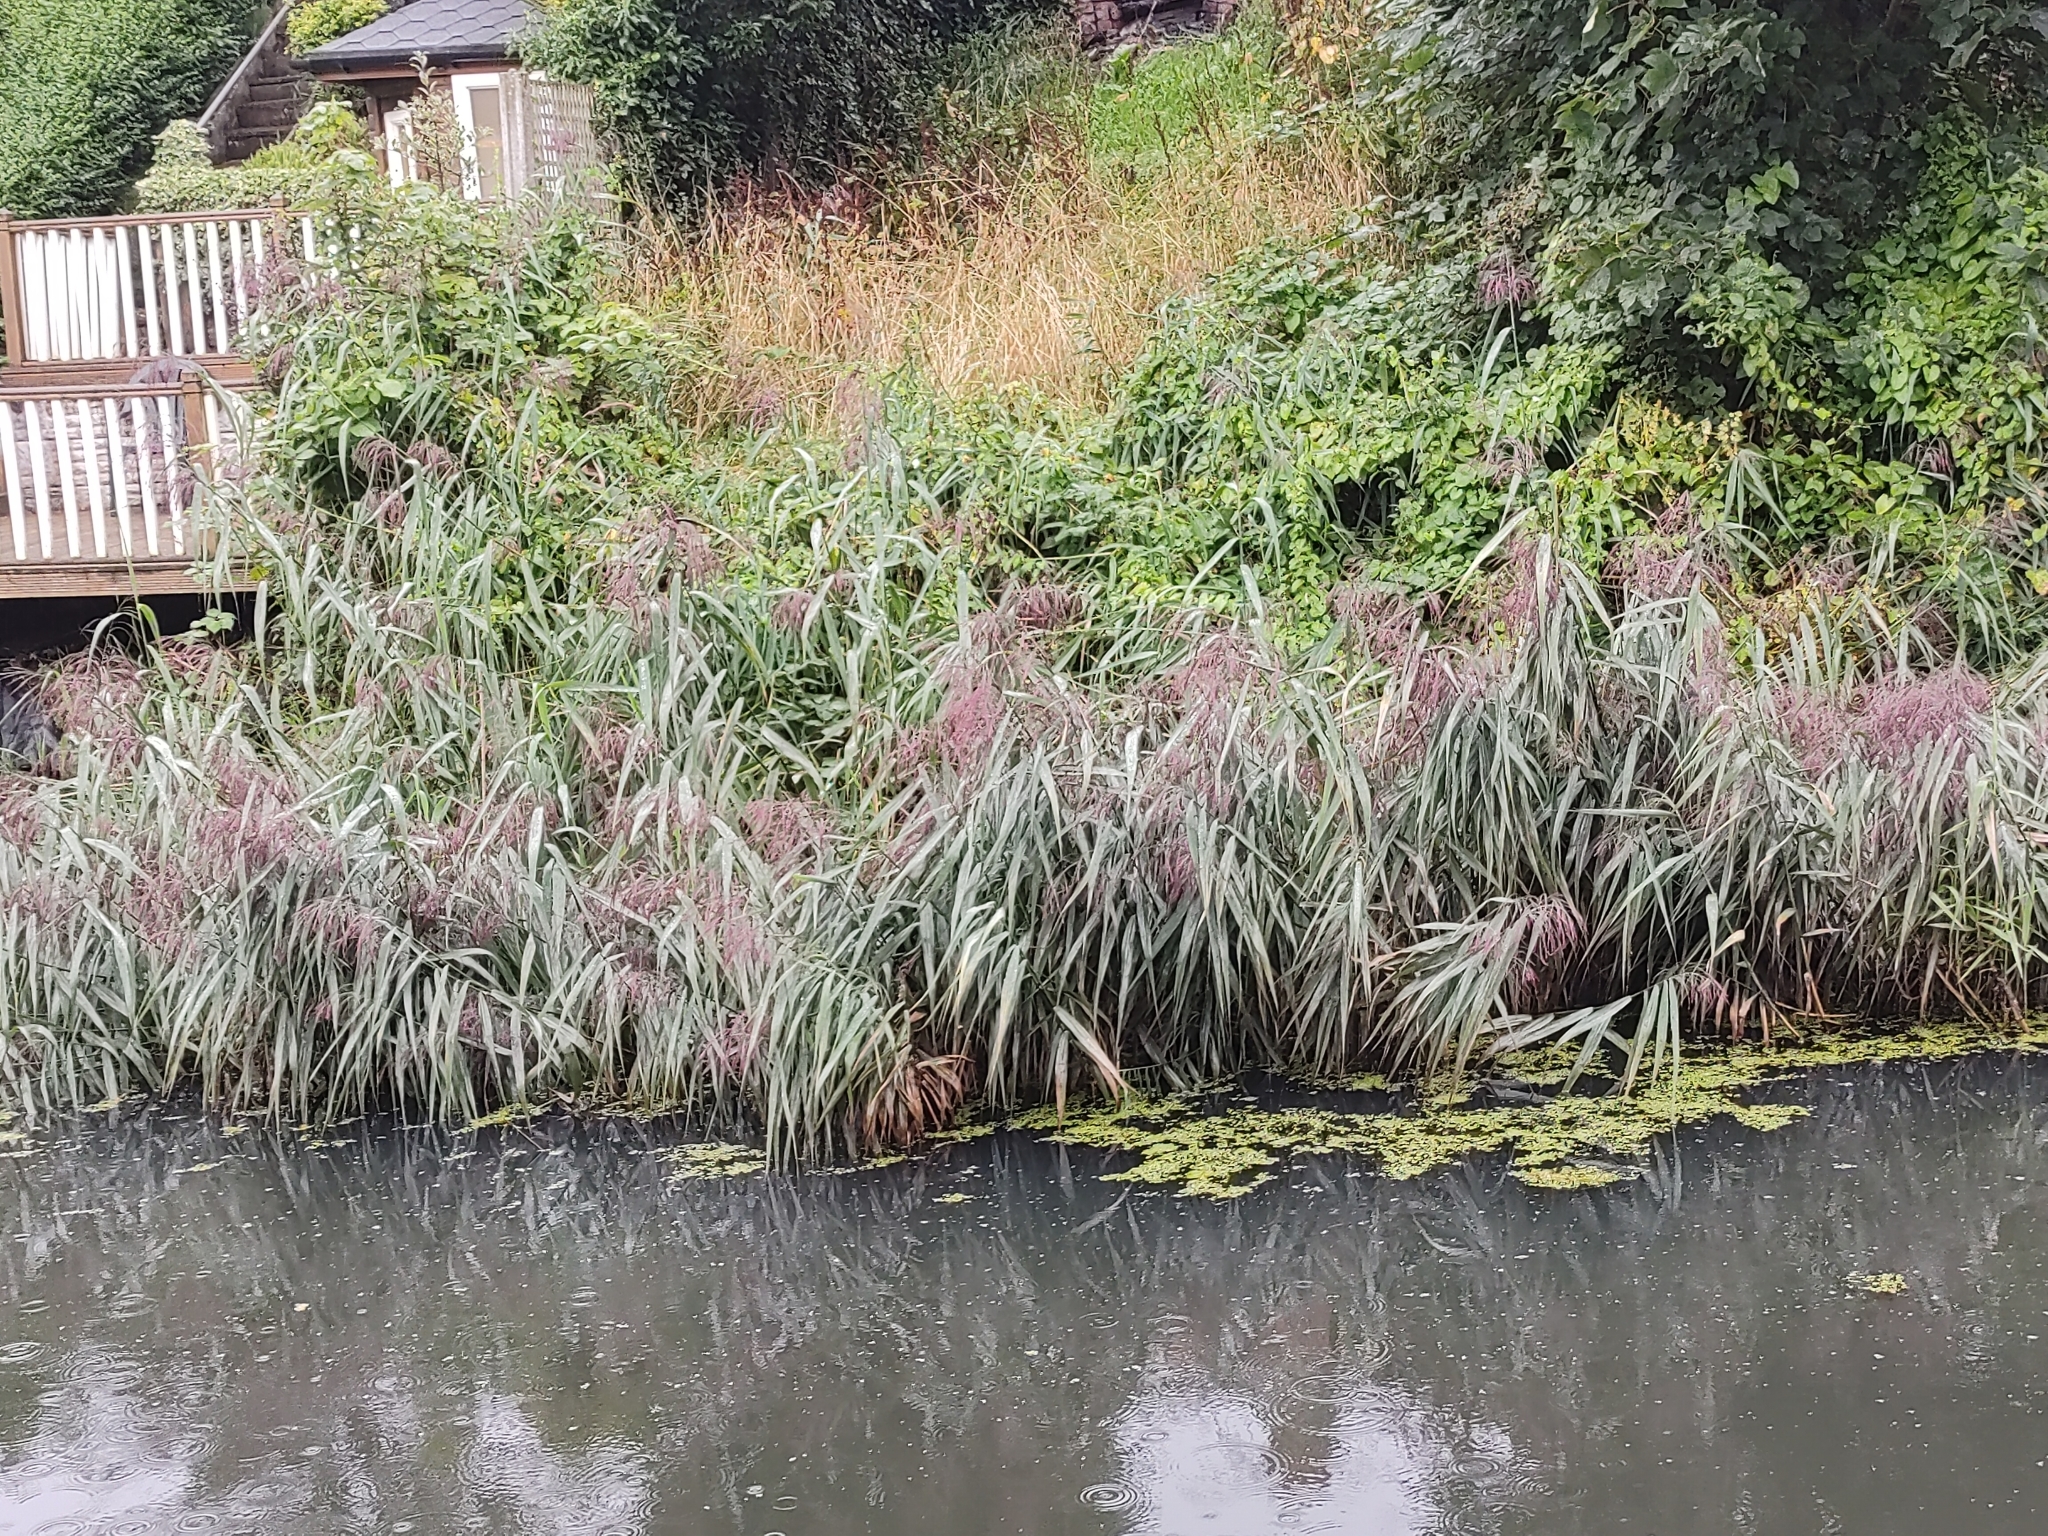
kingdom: Plantae
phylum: Tracheophyta
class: Liliopsida
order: Poales
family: Poaceae
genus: Phragmites
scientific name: Phragmites australis
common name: Common reed
